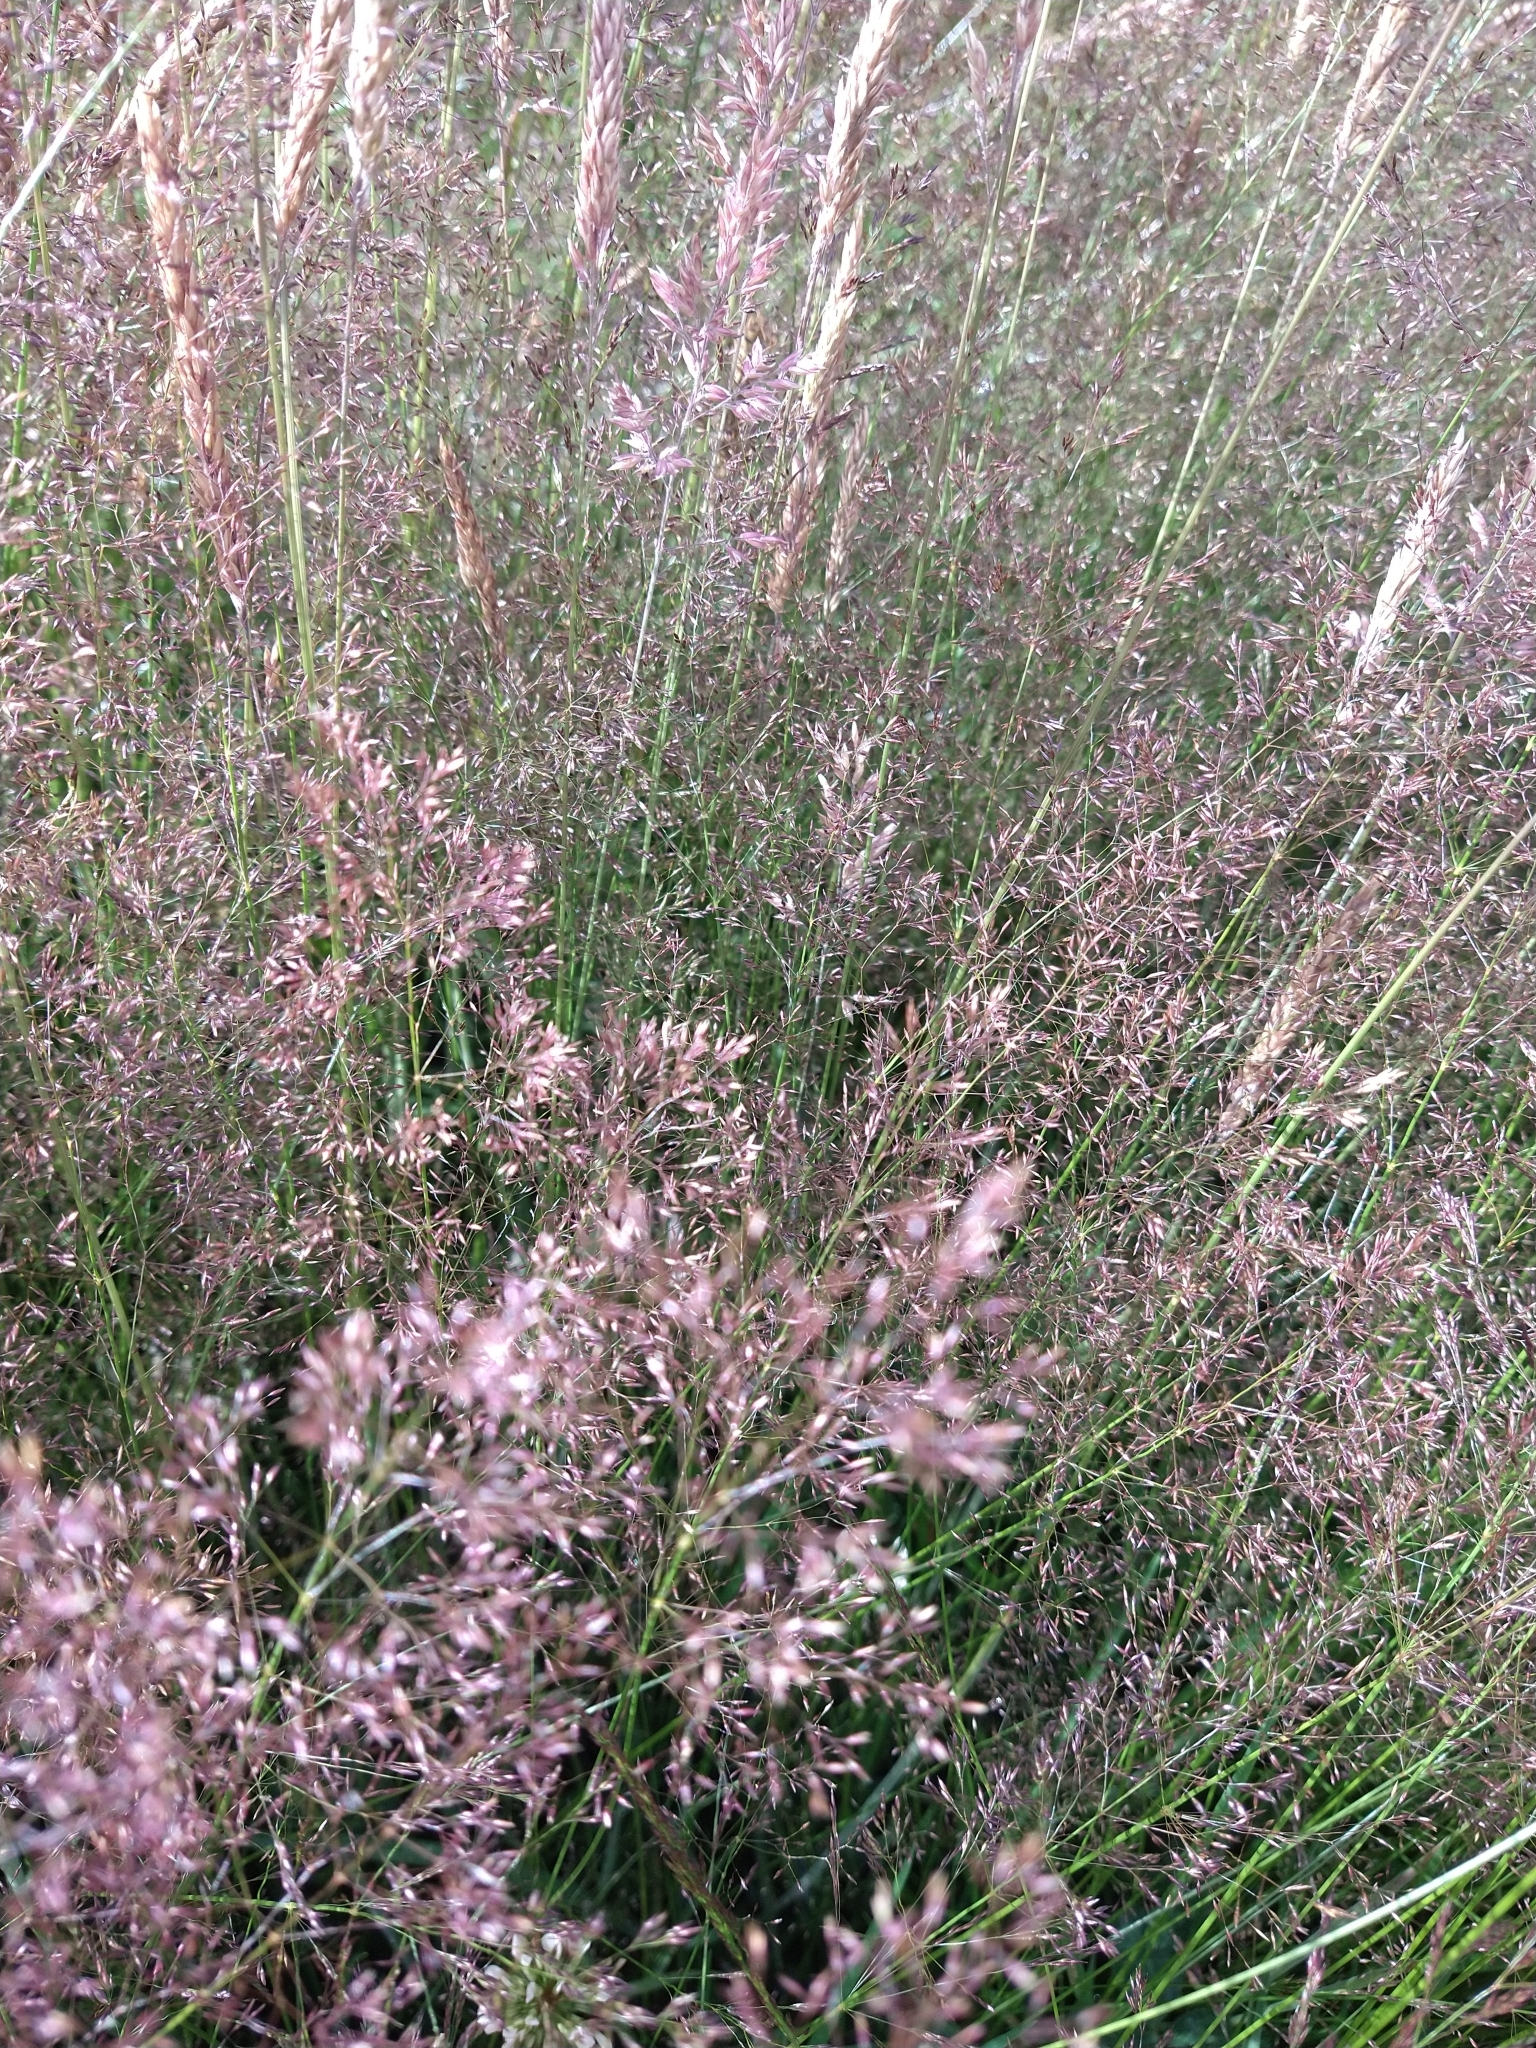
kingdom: Plantae
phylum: Tracheophyta
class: Liliopsida
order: Poales
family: Poaceae
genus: Holcus
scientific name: Holcus lanatus
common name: Yorkshire-fog
